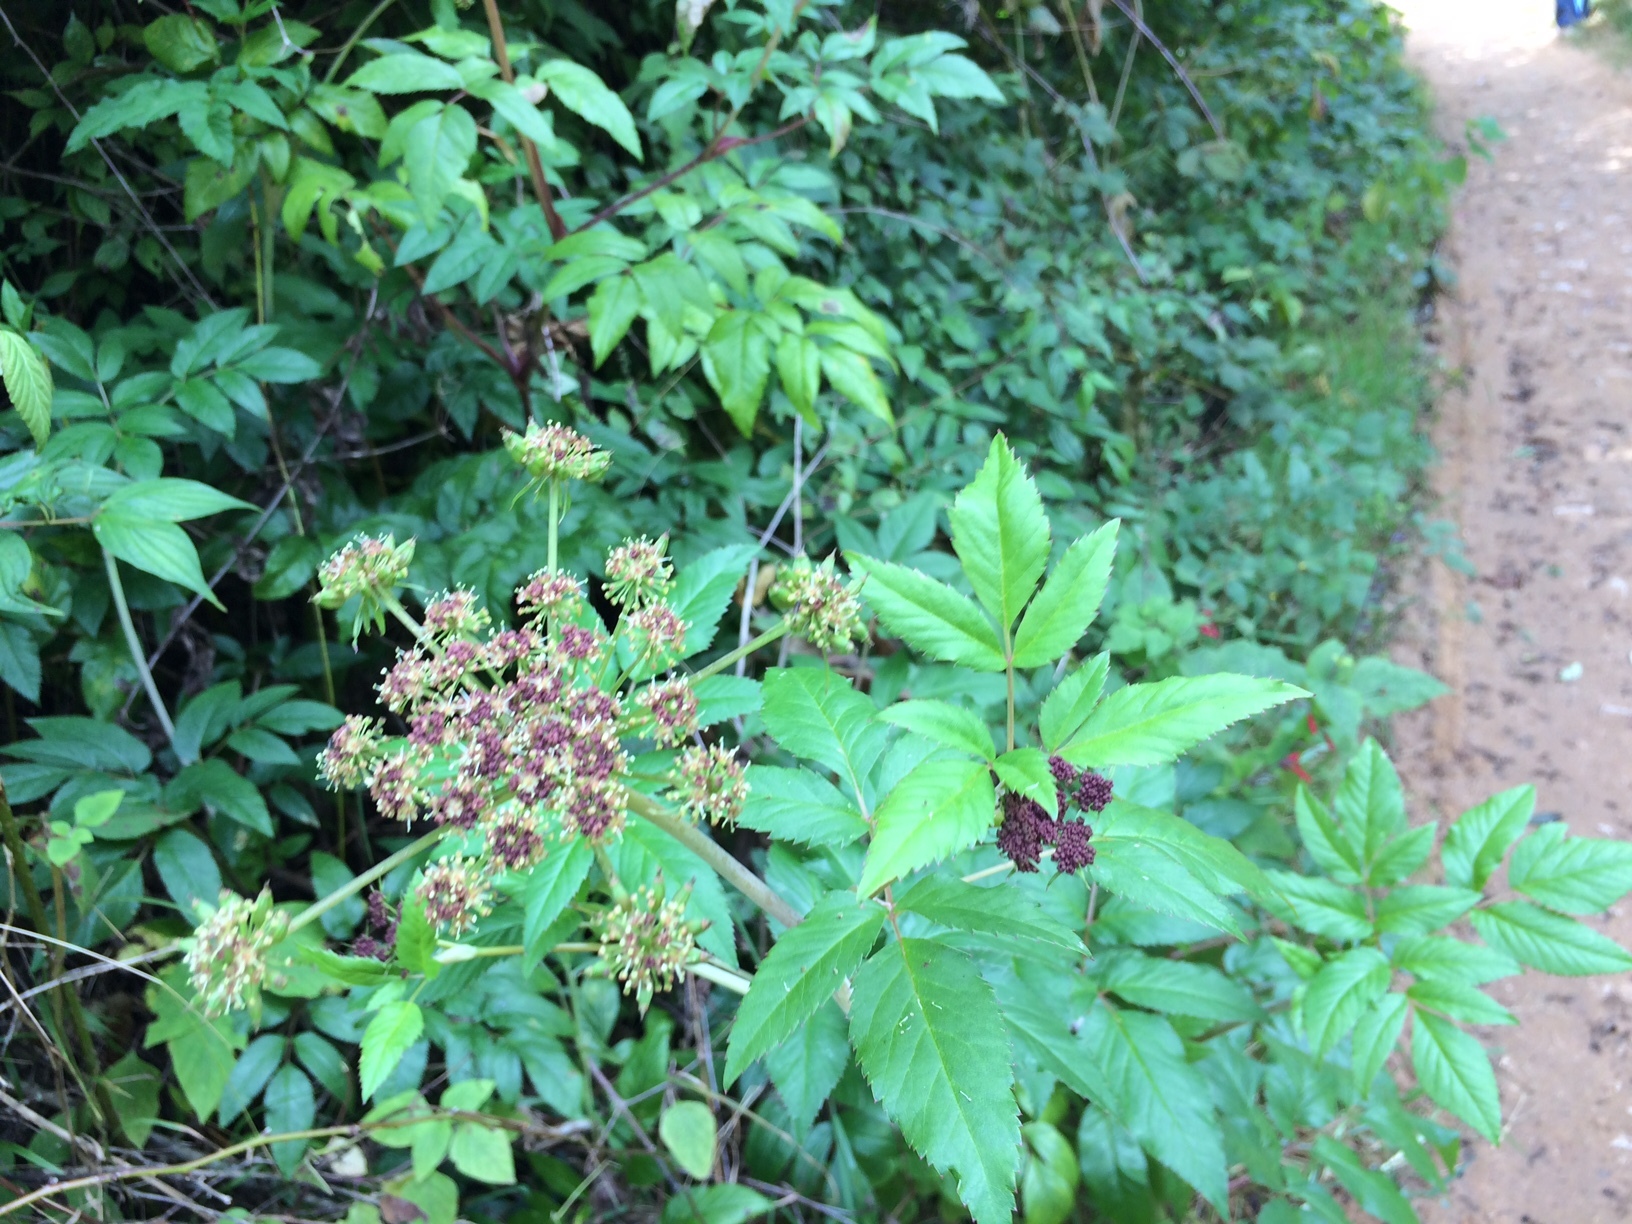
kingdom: Plantae
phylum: Tracheophyta
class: Magnoliopsida
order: Apiales
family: Apiaceae
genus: Arracacia
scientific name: Arracacia nelsonii
